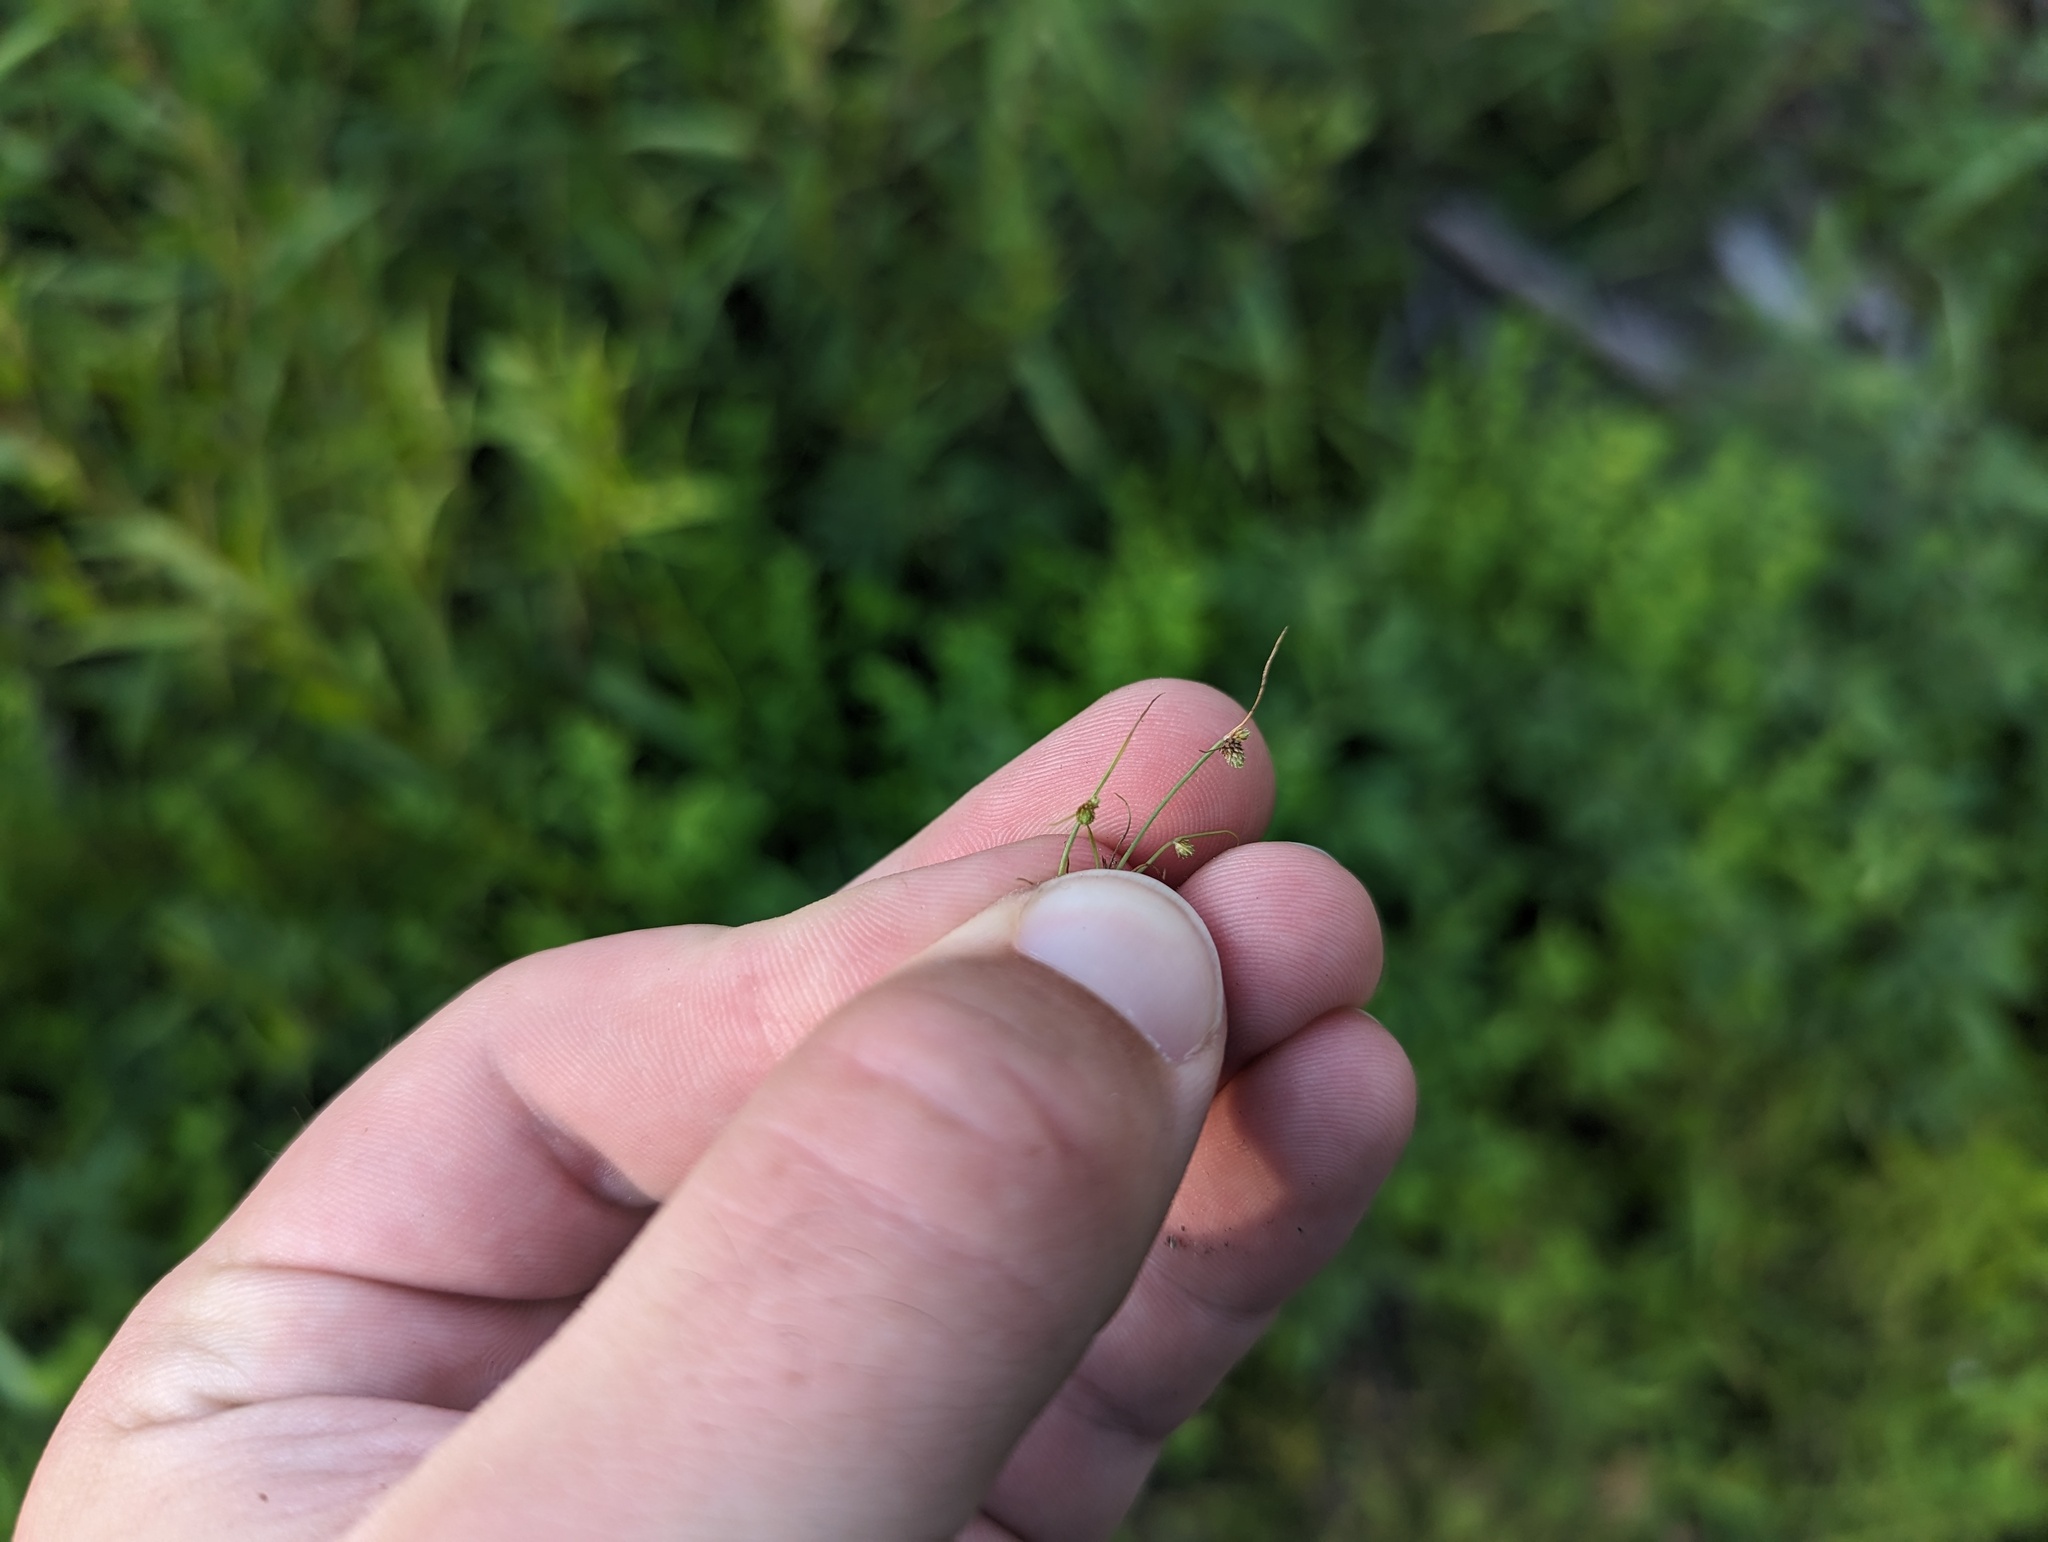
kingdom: Plantae
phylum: Tracheophyta
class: Liliopsida
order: Poales
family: Cyperaceae
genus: Cyperus
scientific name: Cyperus subsquarrosus
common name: Dwarf bulrush
